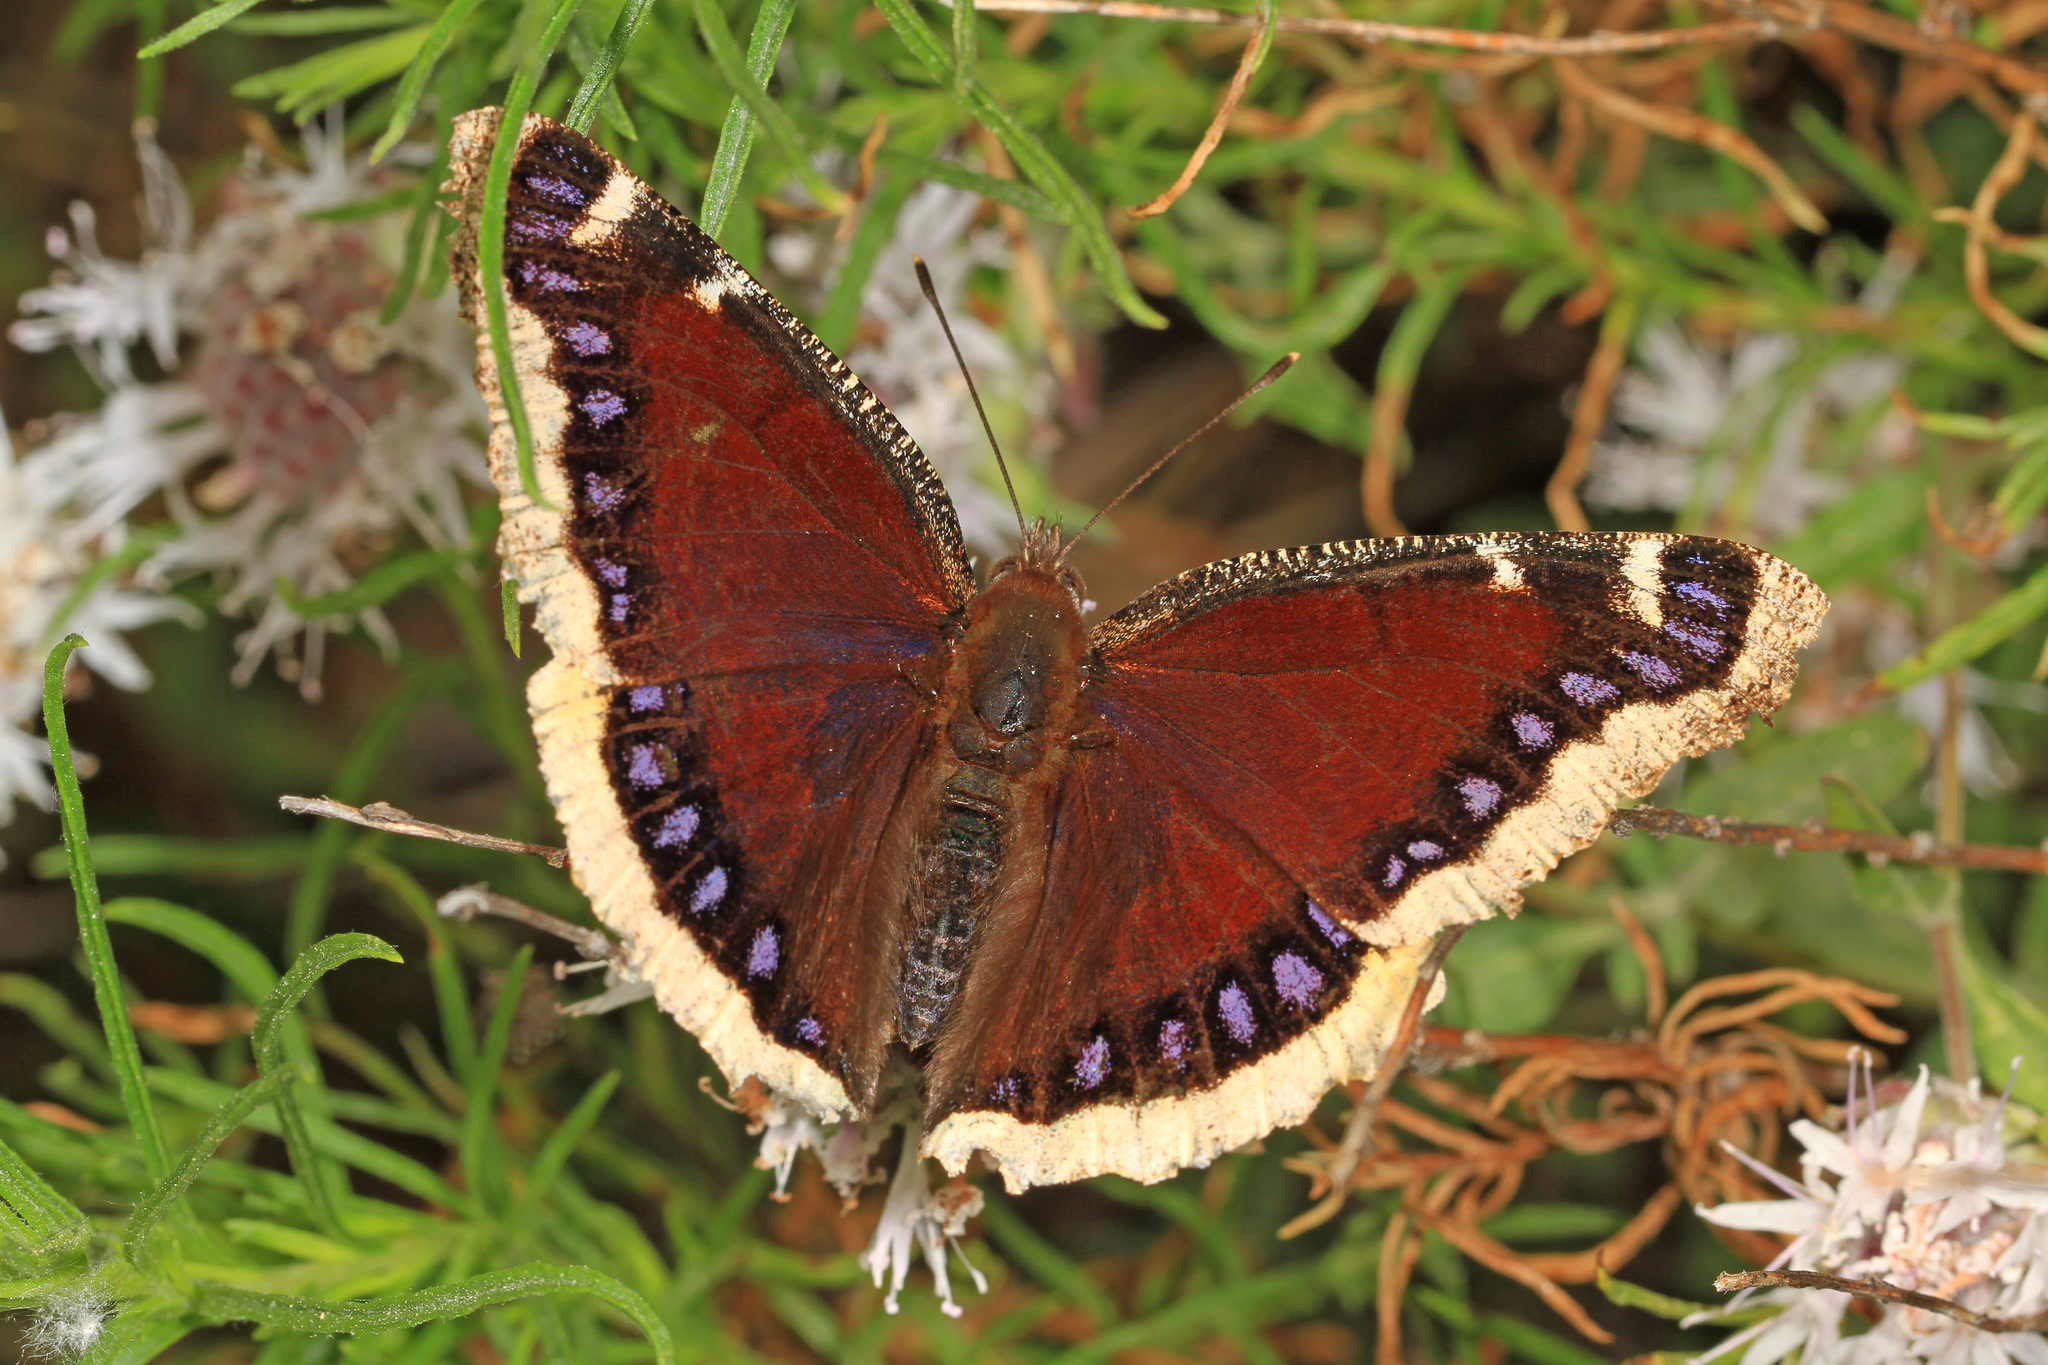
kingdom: Animalia
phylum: Arthropoda
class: Insecta
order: Lepidoptera
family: Nymphalidae
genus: Nymphalis
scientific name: Nymphalis antiopa
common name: Camberwell beauty
